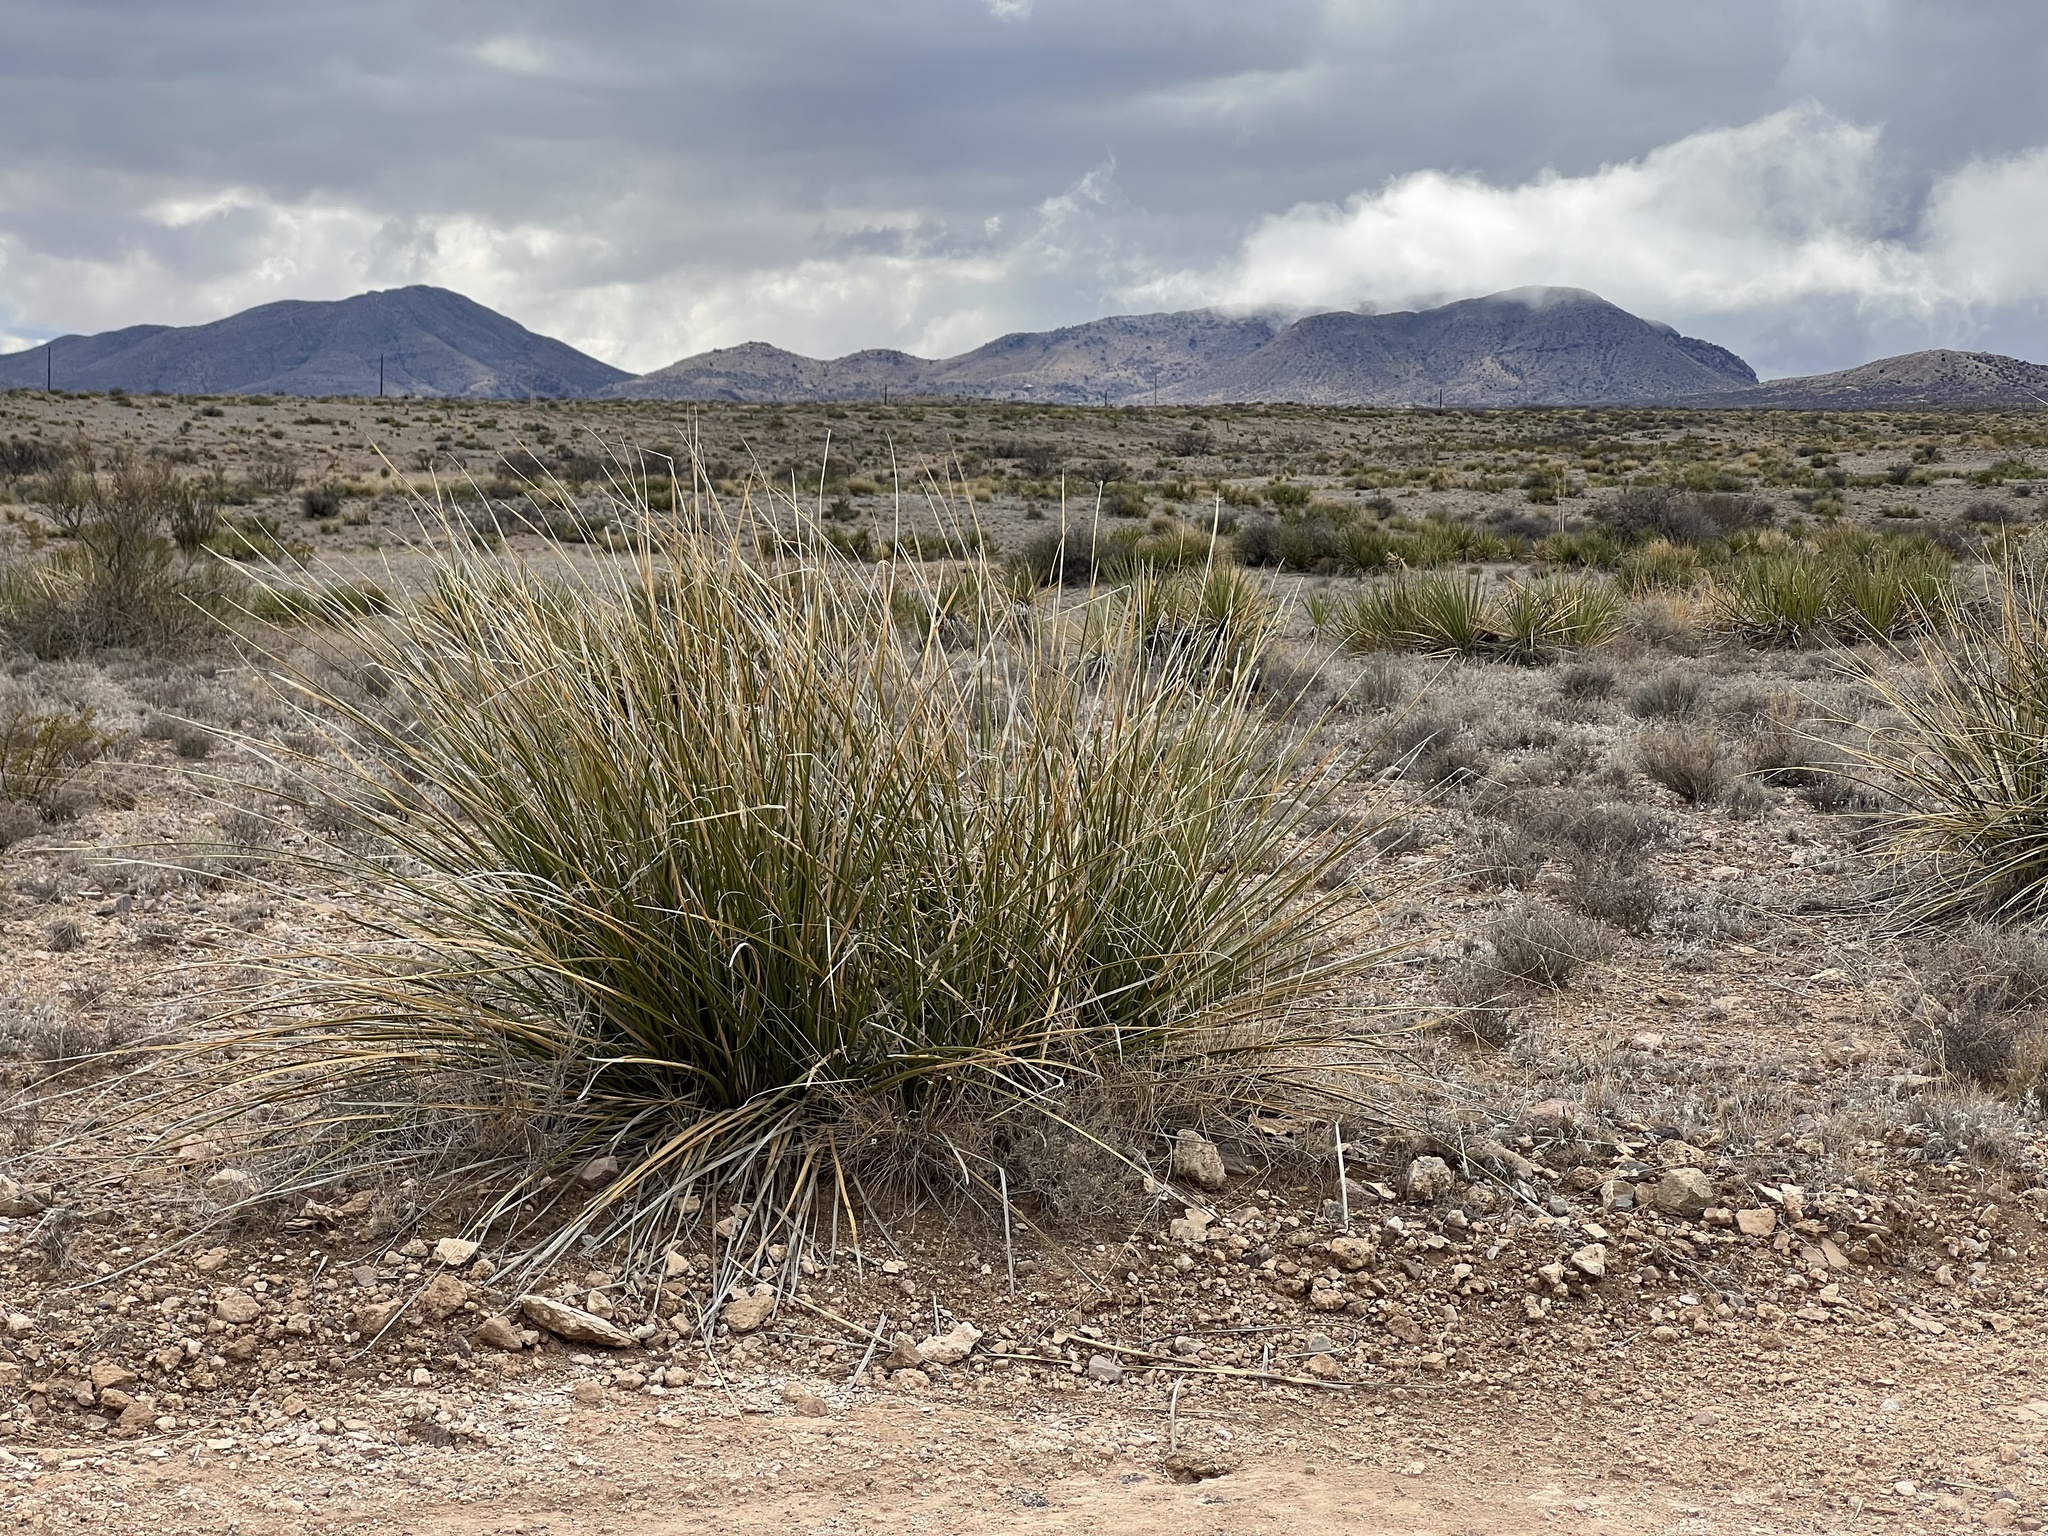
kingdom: Plantae
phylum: Tracheophyta
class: Liliopsida
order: Asparagales
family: Asparagaceae
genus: Nolina
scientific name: Nolina microcarpa
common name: Bear-grass
